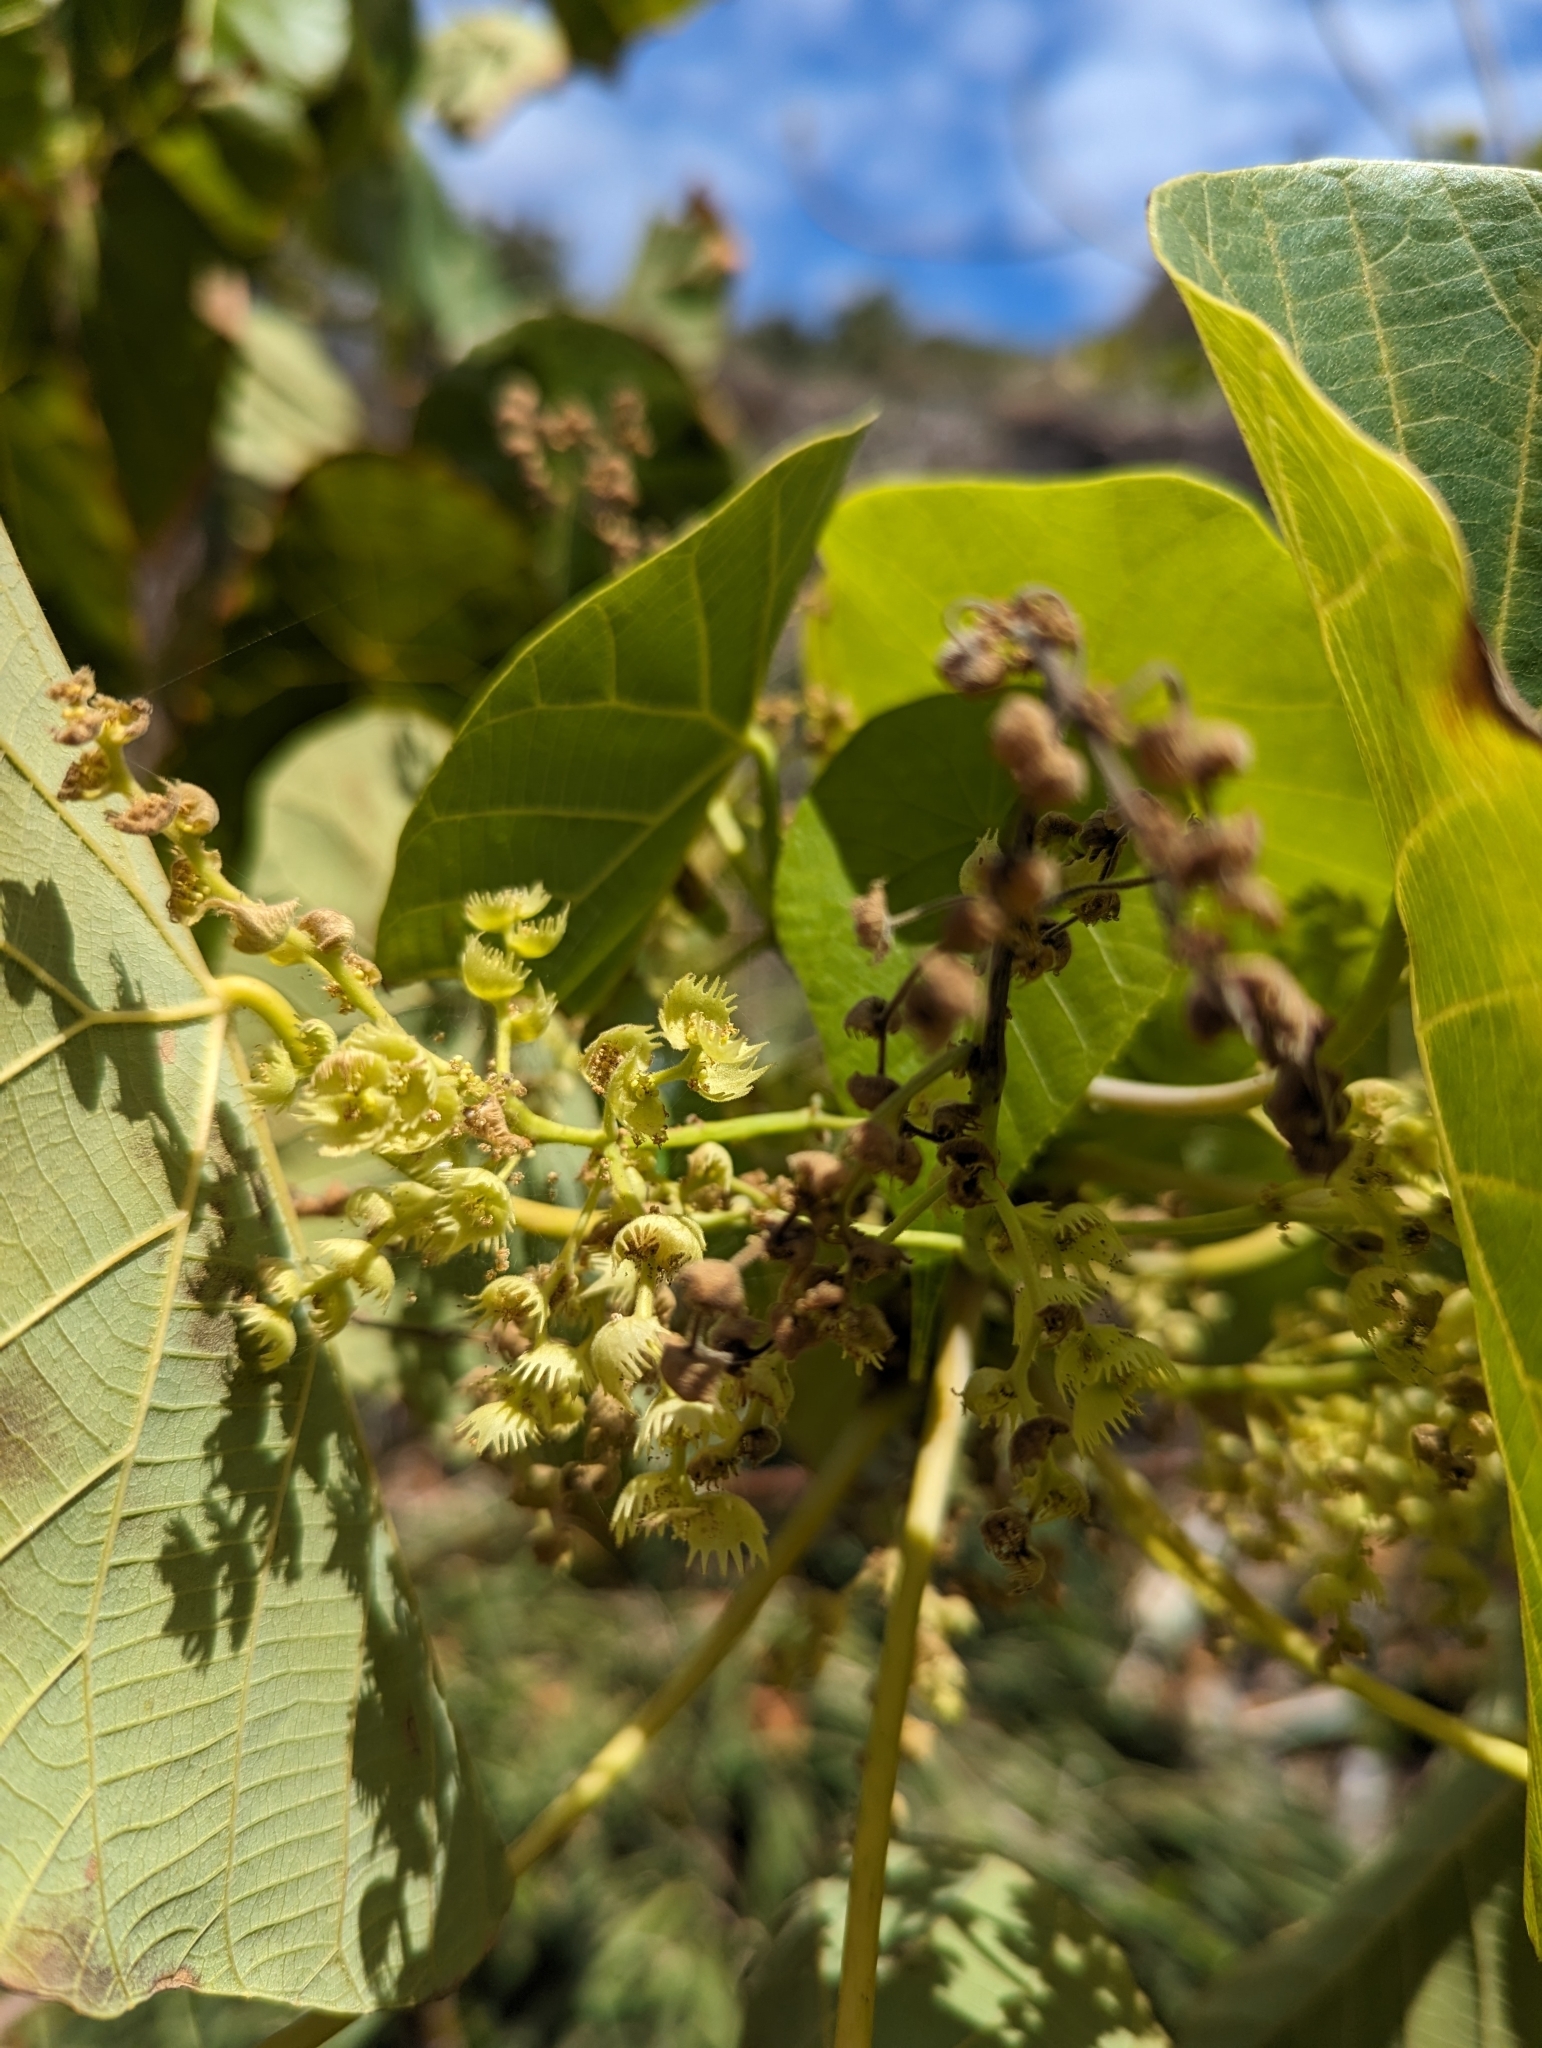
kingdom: Plantae
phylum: Tracheophyta
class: Magnoliopsida
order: Malpighiales
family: Euphorbiaceae
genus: Macaranga
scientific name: Macaranga tanarius
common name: Parasol leaf tree
